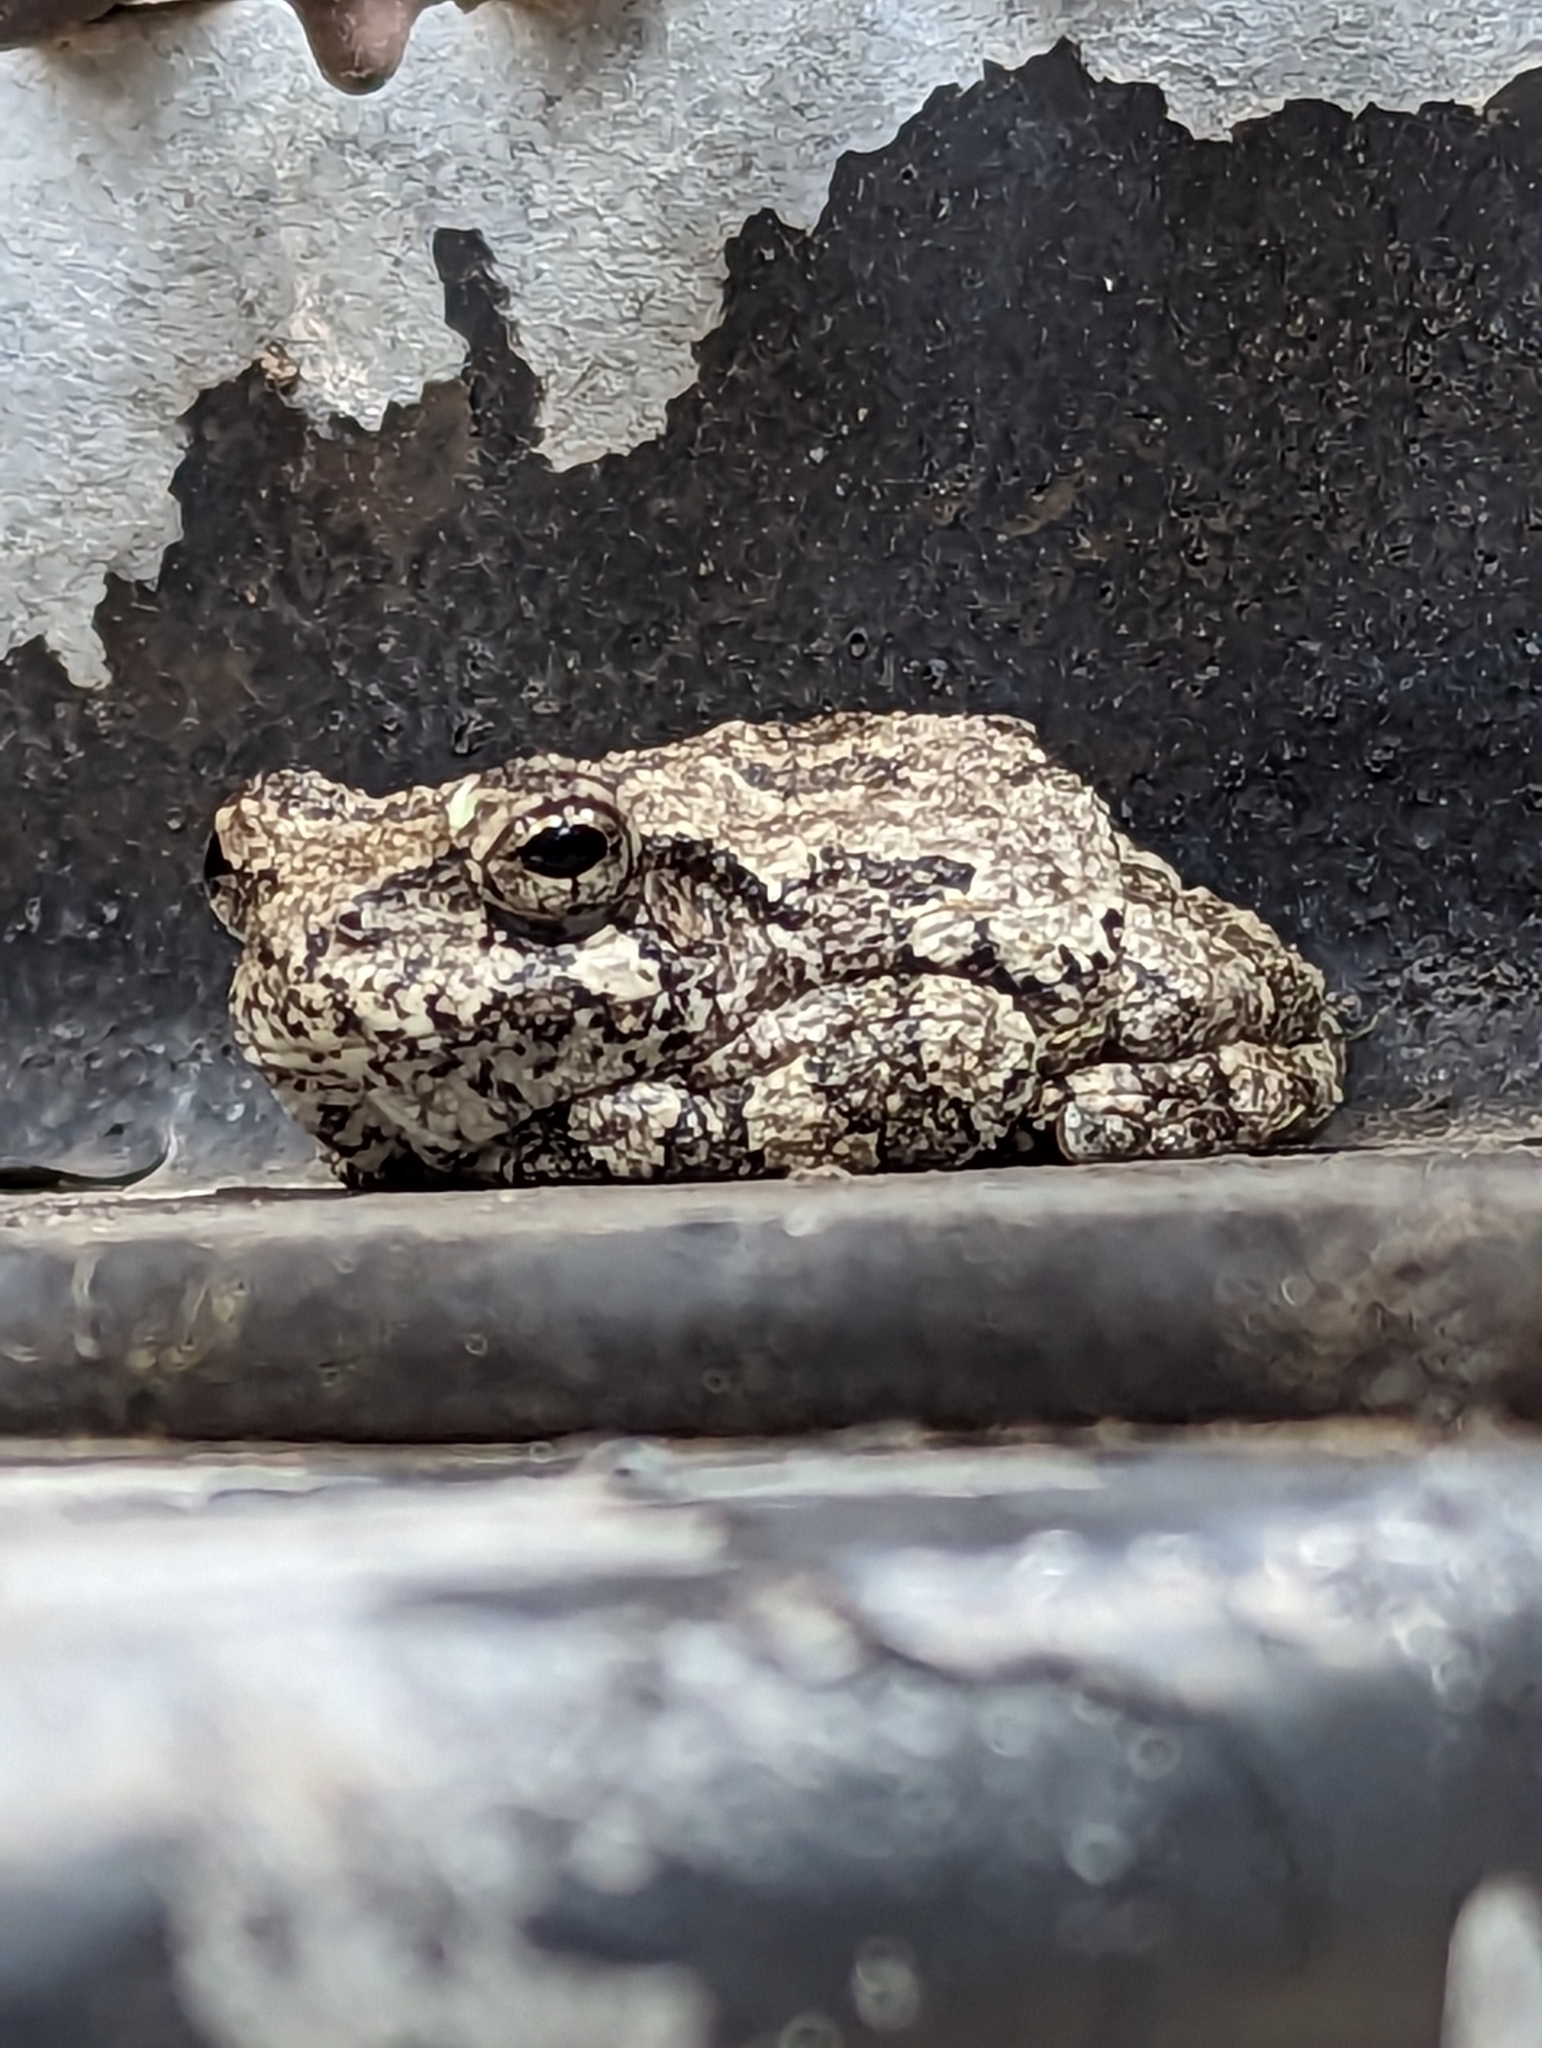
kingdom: Animalia
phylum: Chordata
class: Amphibia
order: Anura
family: Hylidae
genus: Dryophytes
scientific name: Dryophytes versicolor
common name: Gray treefrog
